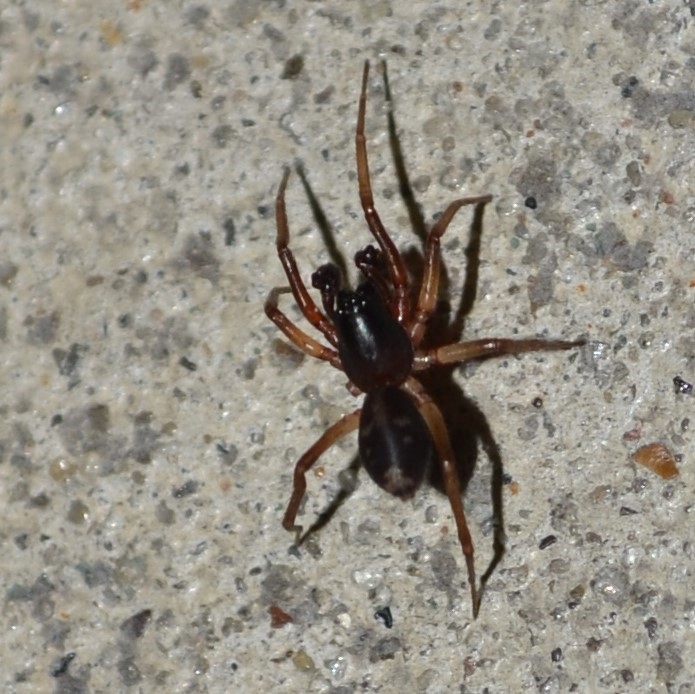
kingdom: Animalia
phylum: Arthropoda
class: Arachnida
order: Araneae
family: Corinnidae
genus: Falconina
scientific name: Falconina gracilis
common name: Antmimic spider
